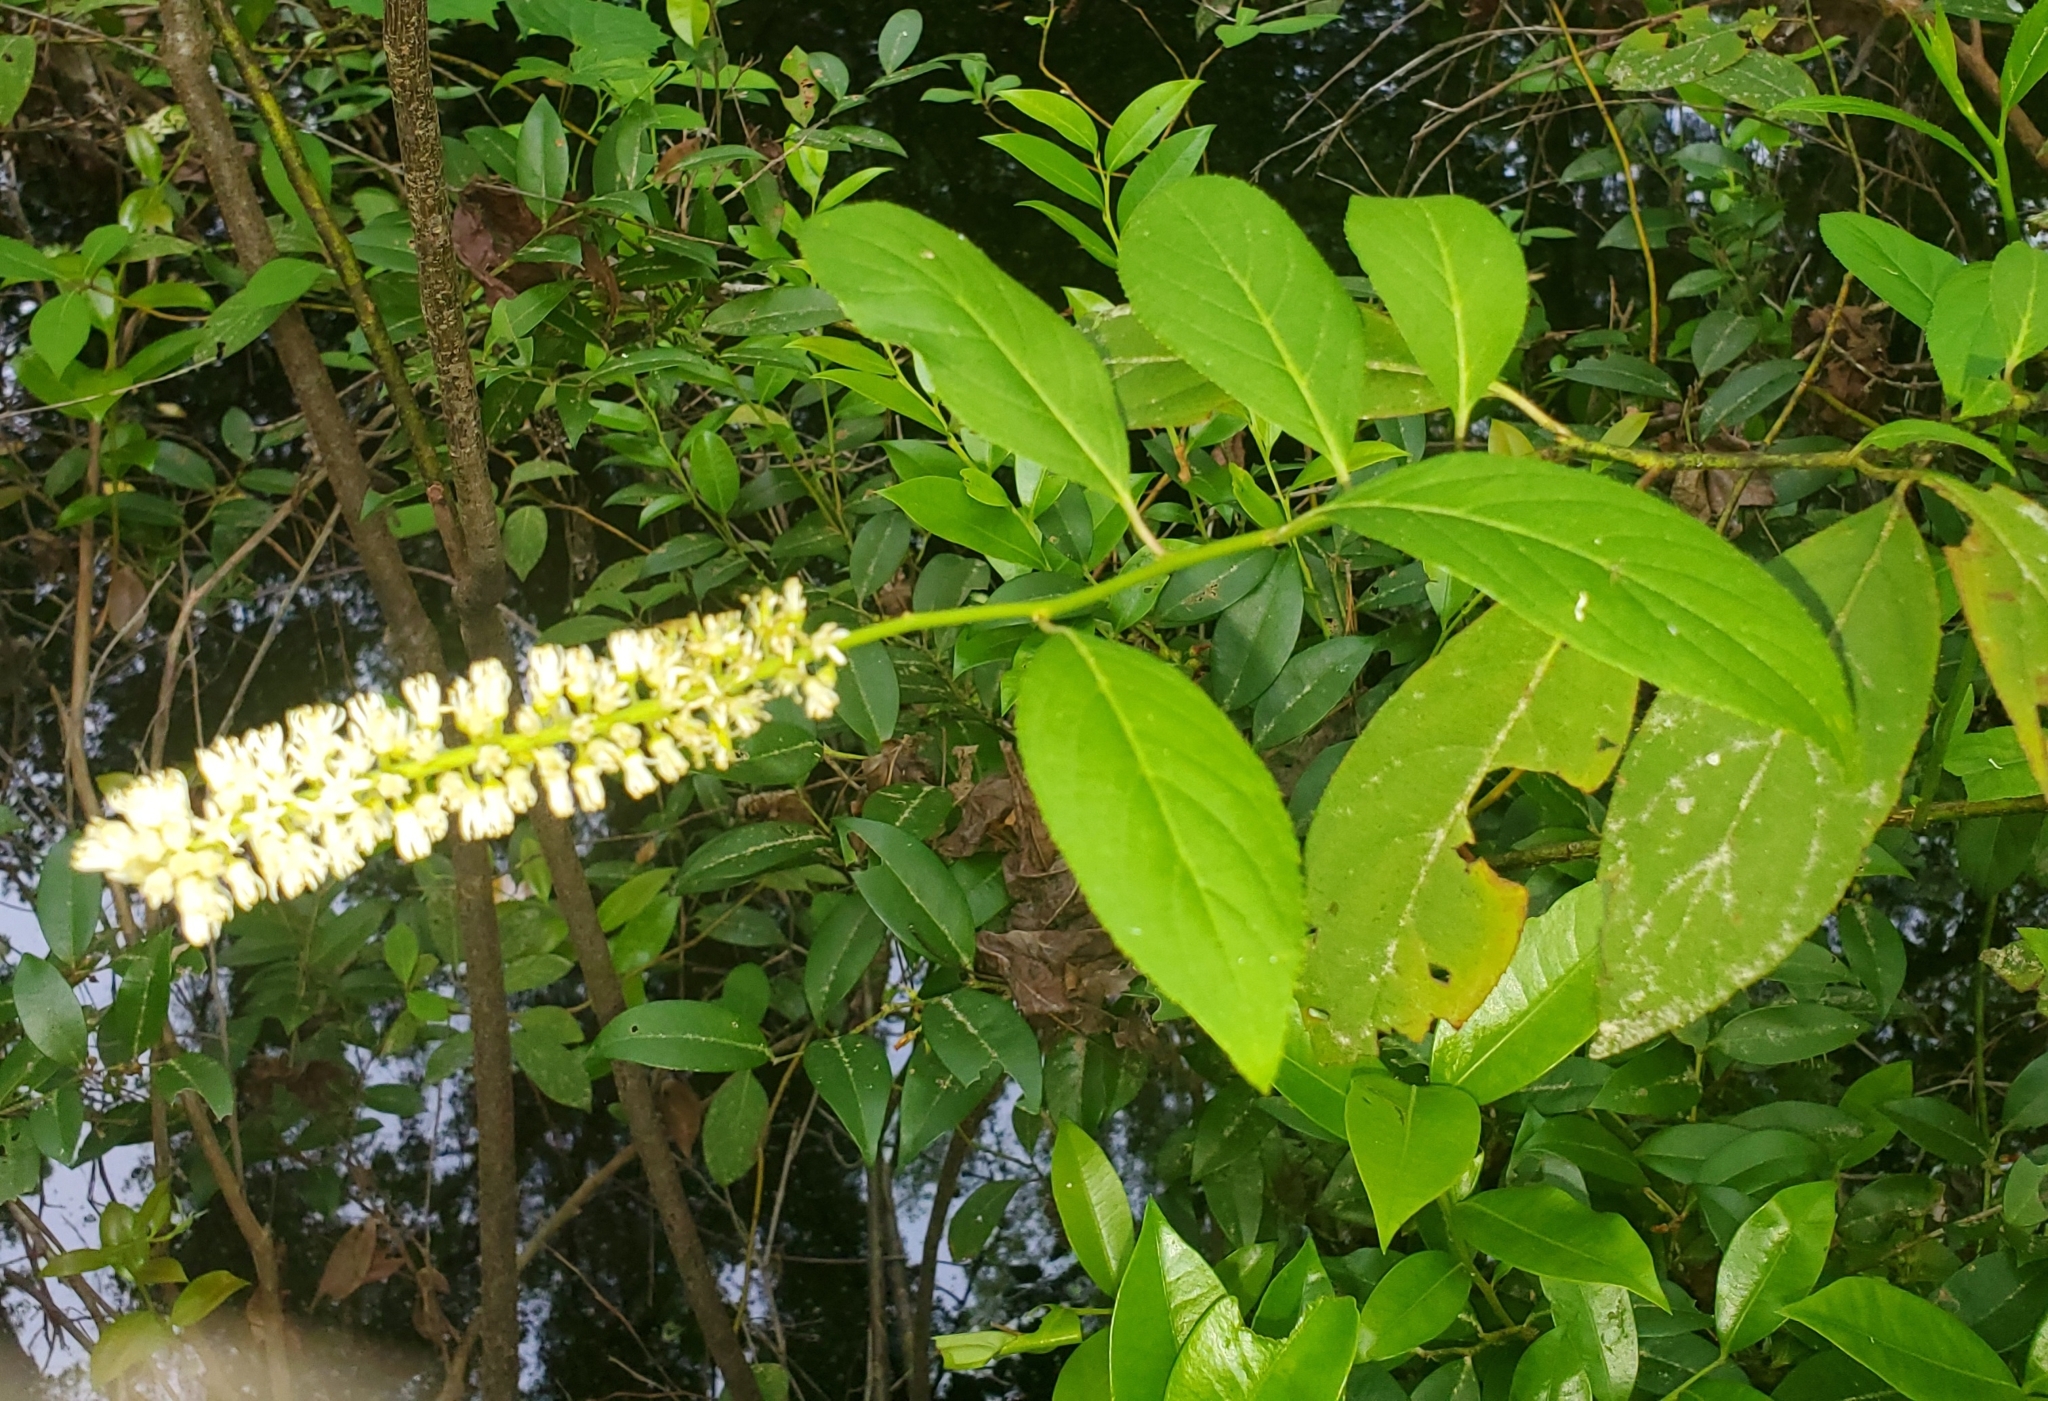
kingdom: Plantae
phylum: Tracheophyta
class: Magnoliopsida
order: Saxifragales
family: Iteaceae
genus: Itea
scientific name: Itea virginica
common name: Sweetspire
